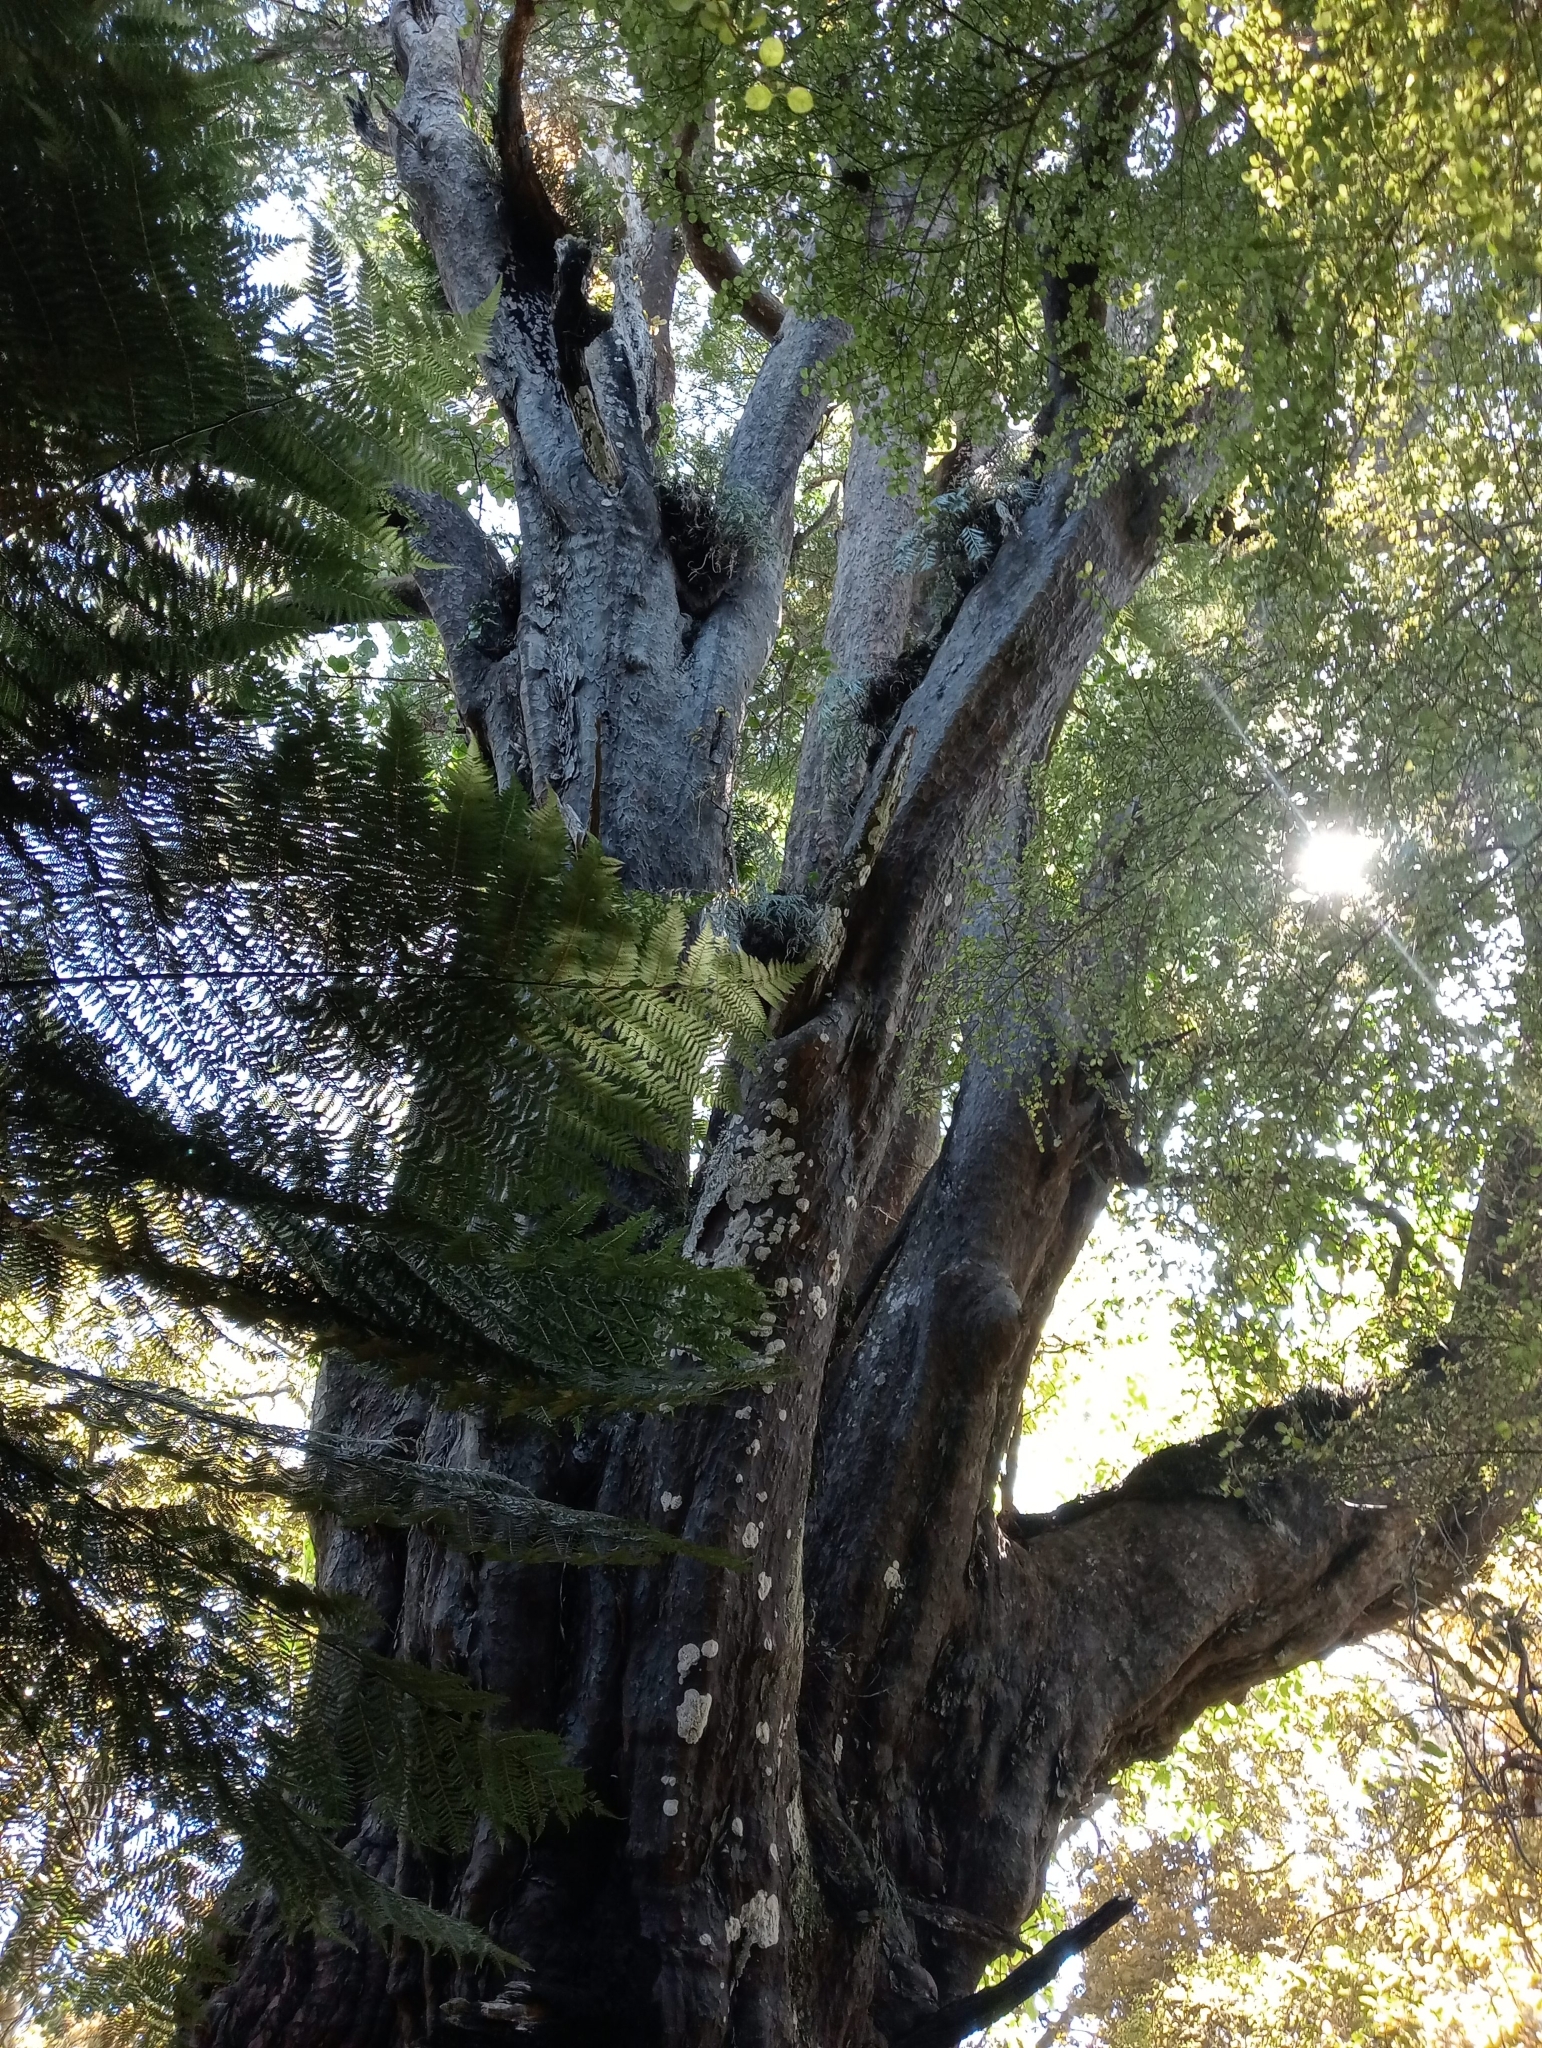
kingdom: Plantae
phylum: Tracheophyta
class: Pinopsida
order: Pinales
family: Podocarpaceae
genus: Prumnopitys
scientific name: Prumnopitys taxifolia
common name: Matai
